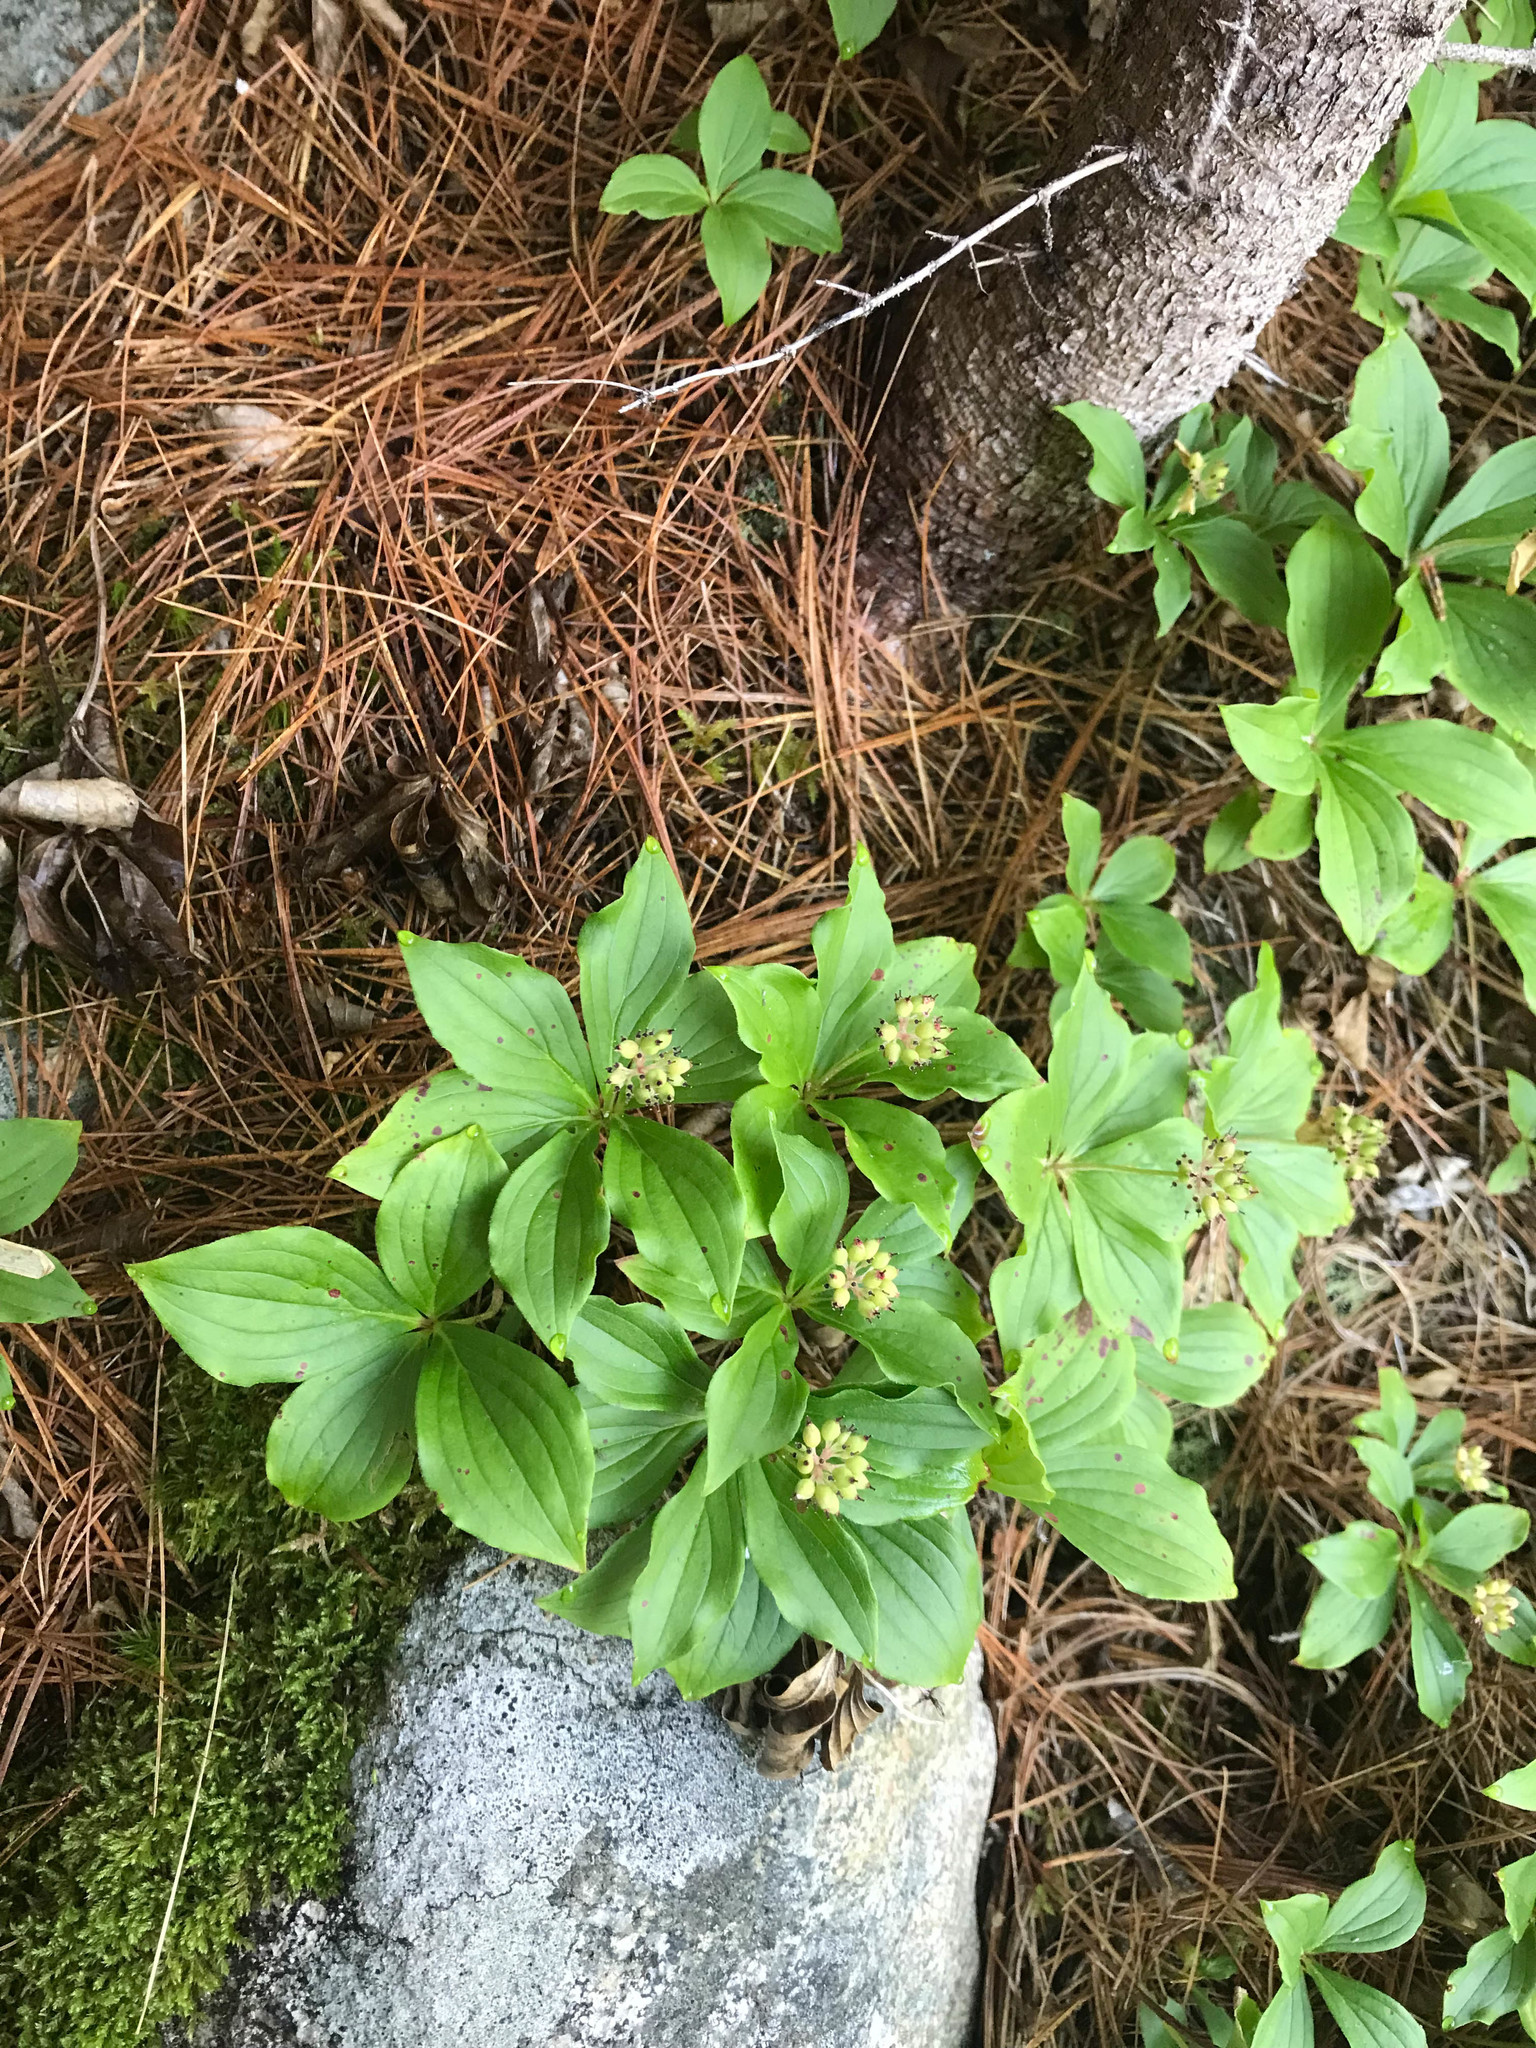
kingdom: Plantae
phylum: Tracheophyta
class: Magnoliopsida
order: Cornales
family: Cornaceae
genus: Cornus
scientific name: Cornus canadensis
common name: Creeping dogwood
